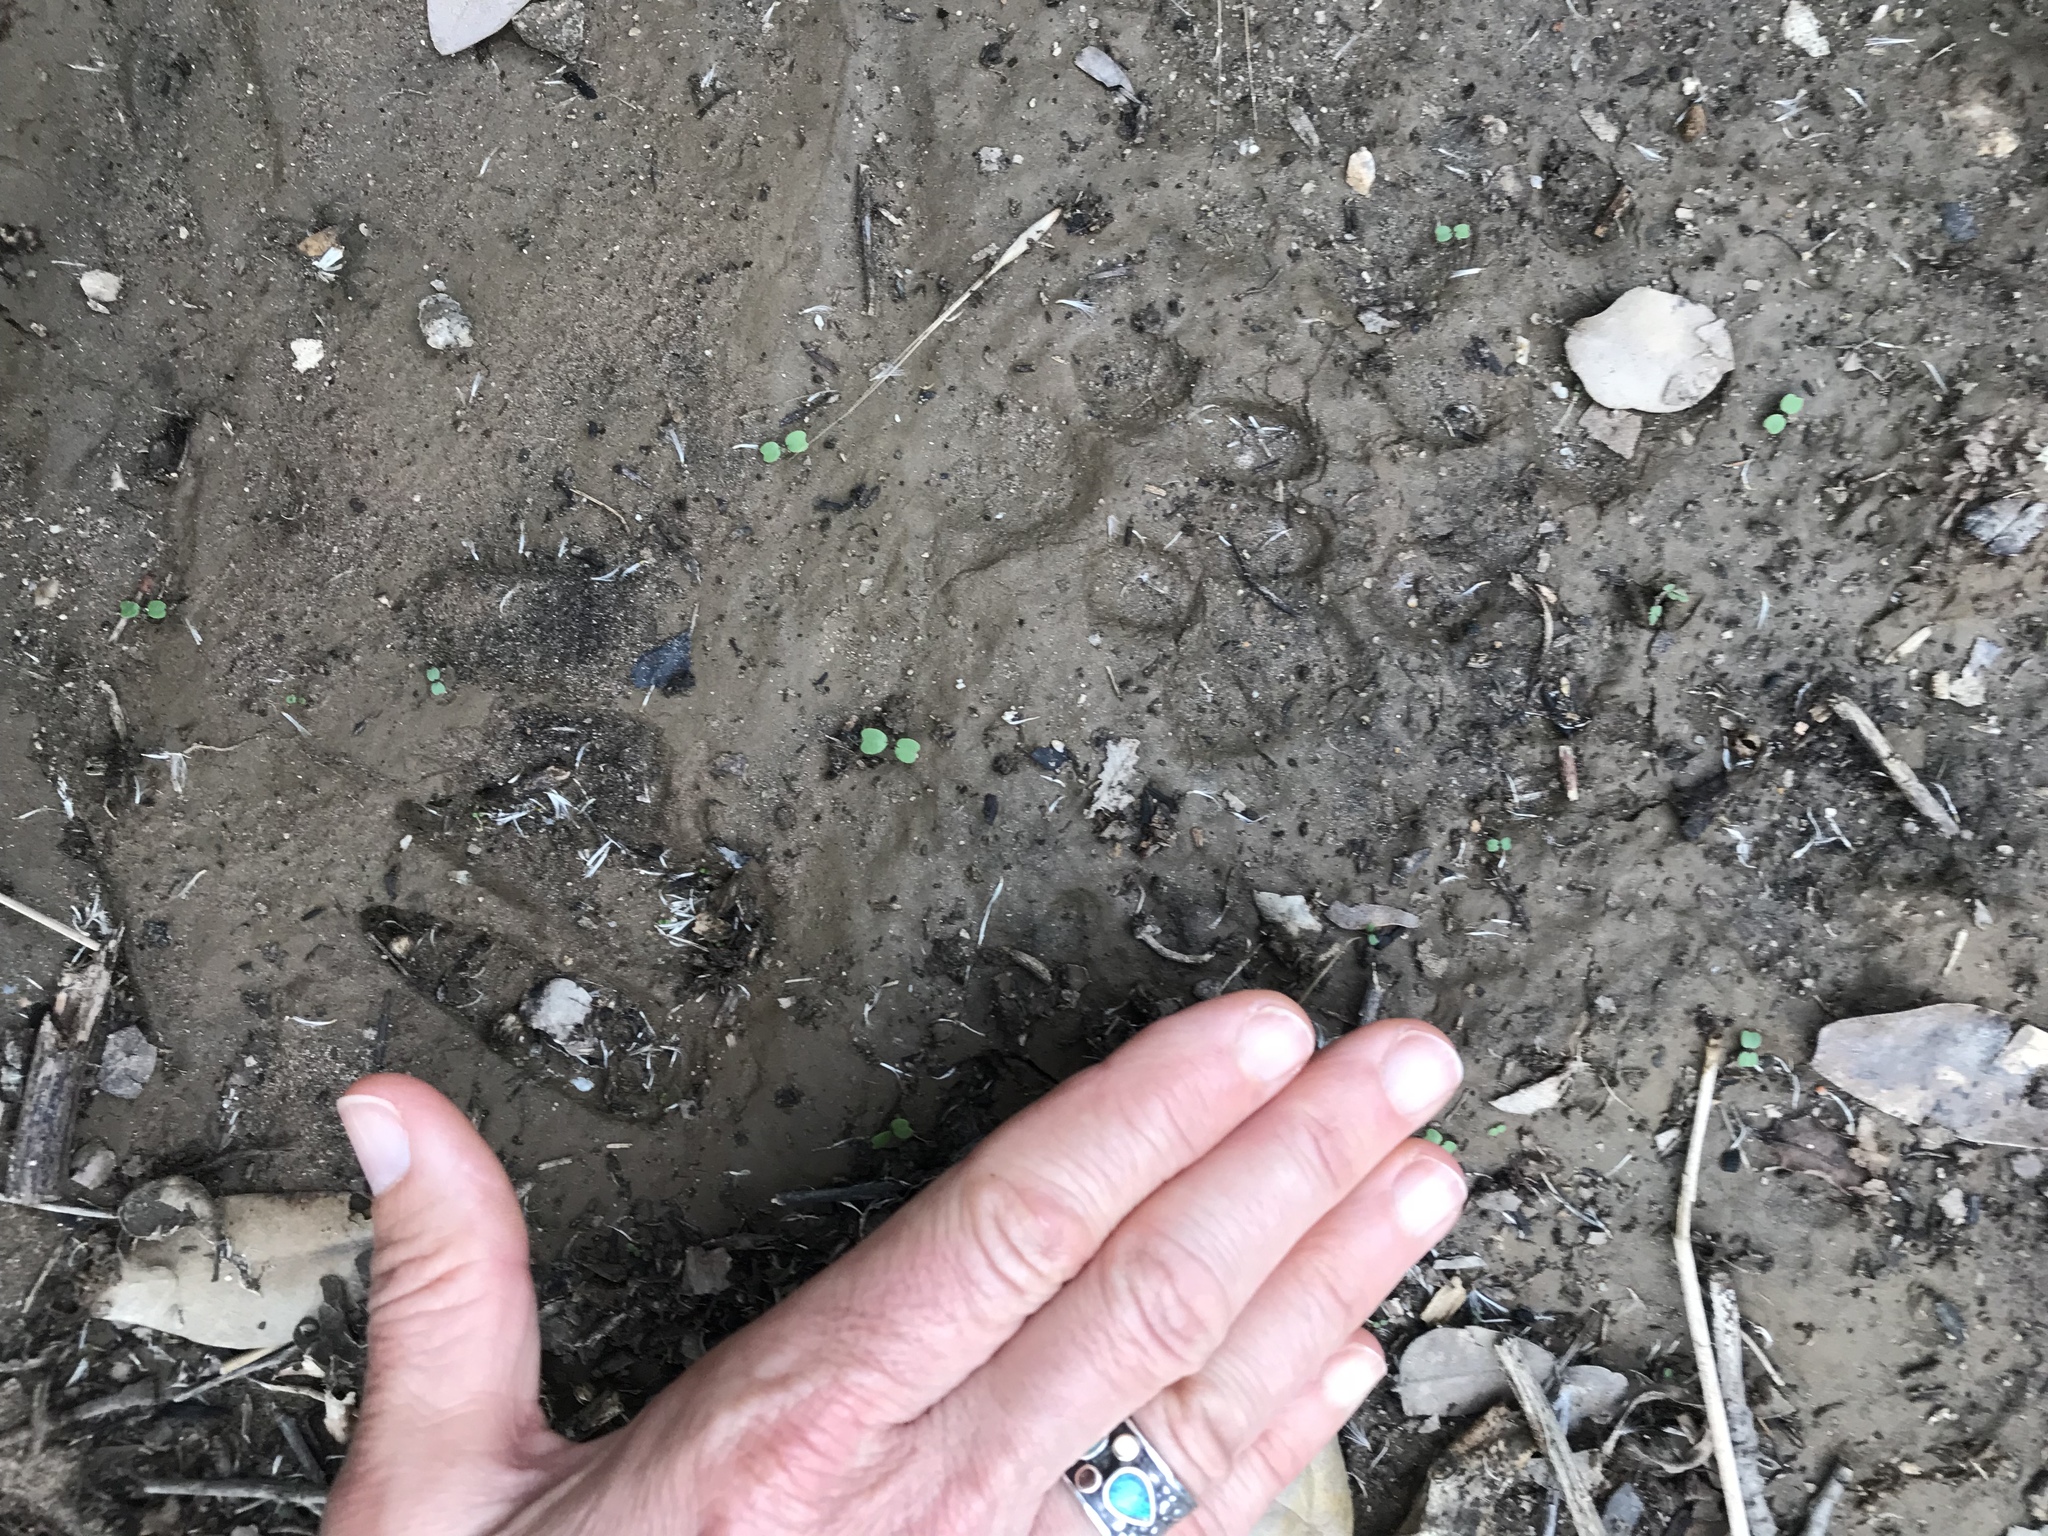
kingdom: Animalia
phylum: Chordata
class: Mammalia
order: Artiodactyla
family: Cervidae
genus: Odocoileus
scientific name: Odocoileus hemionus
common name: Mule deer
